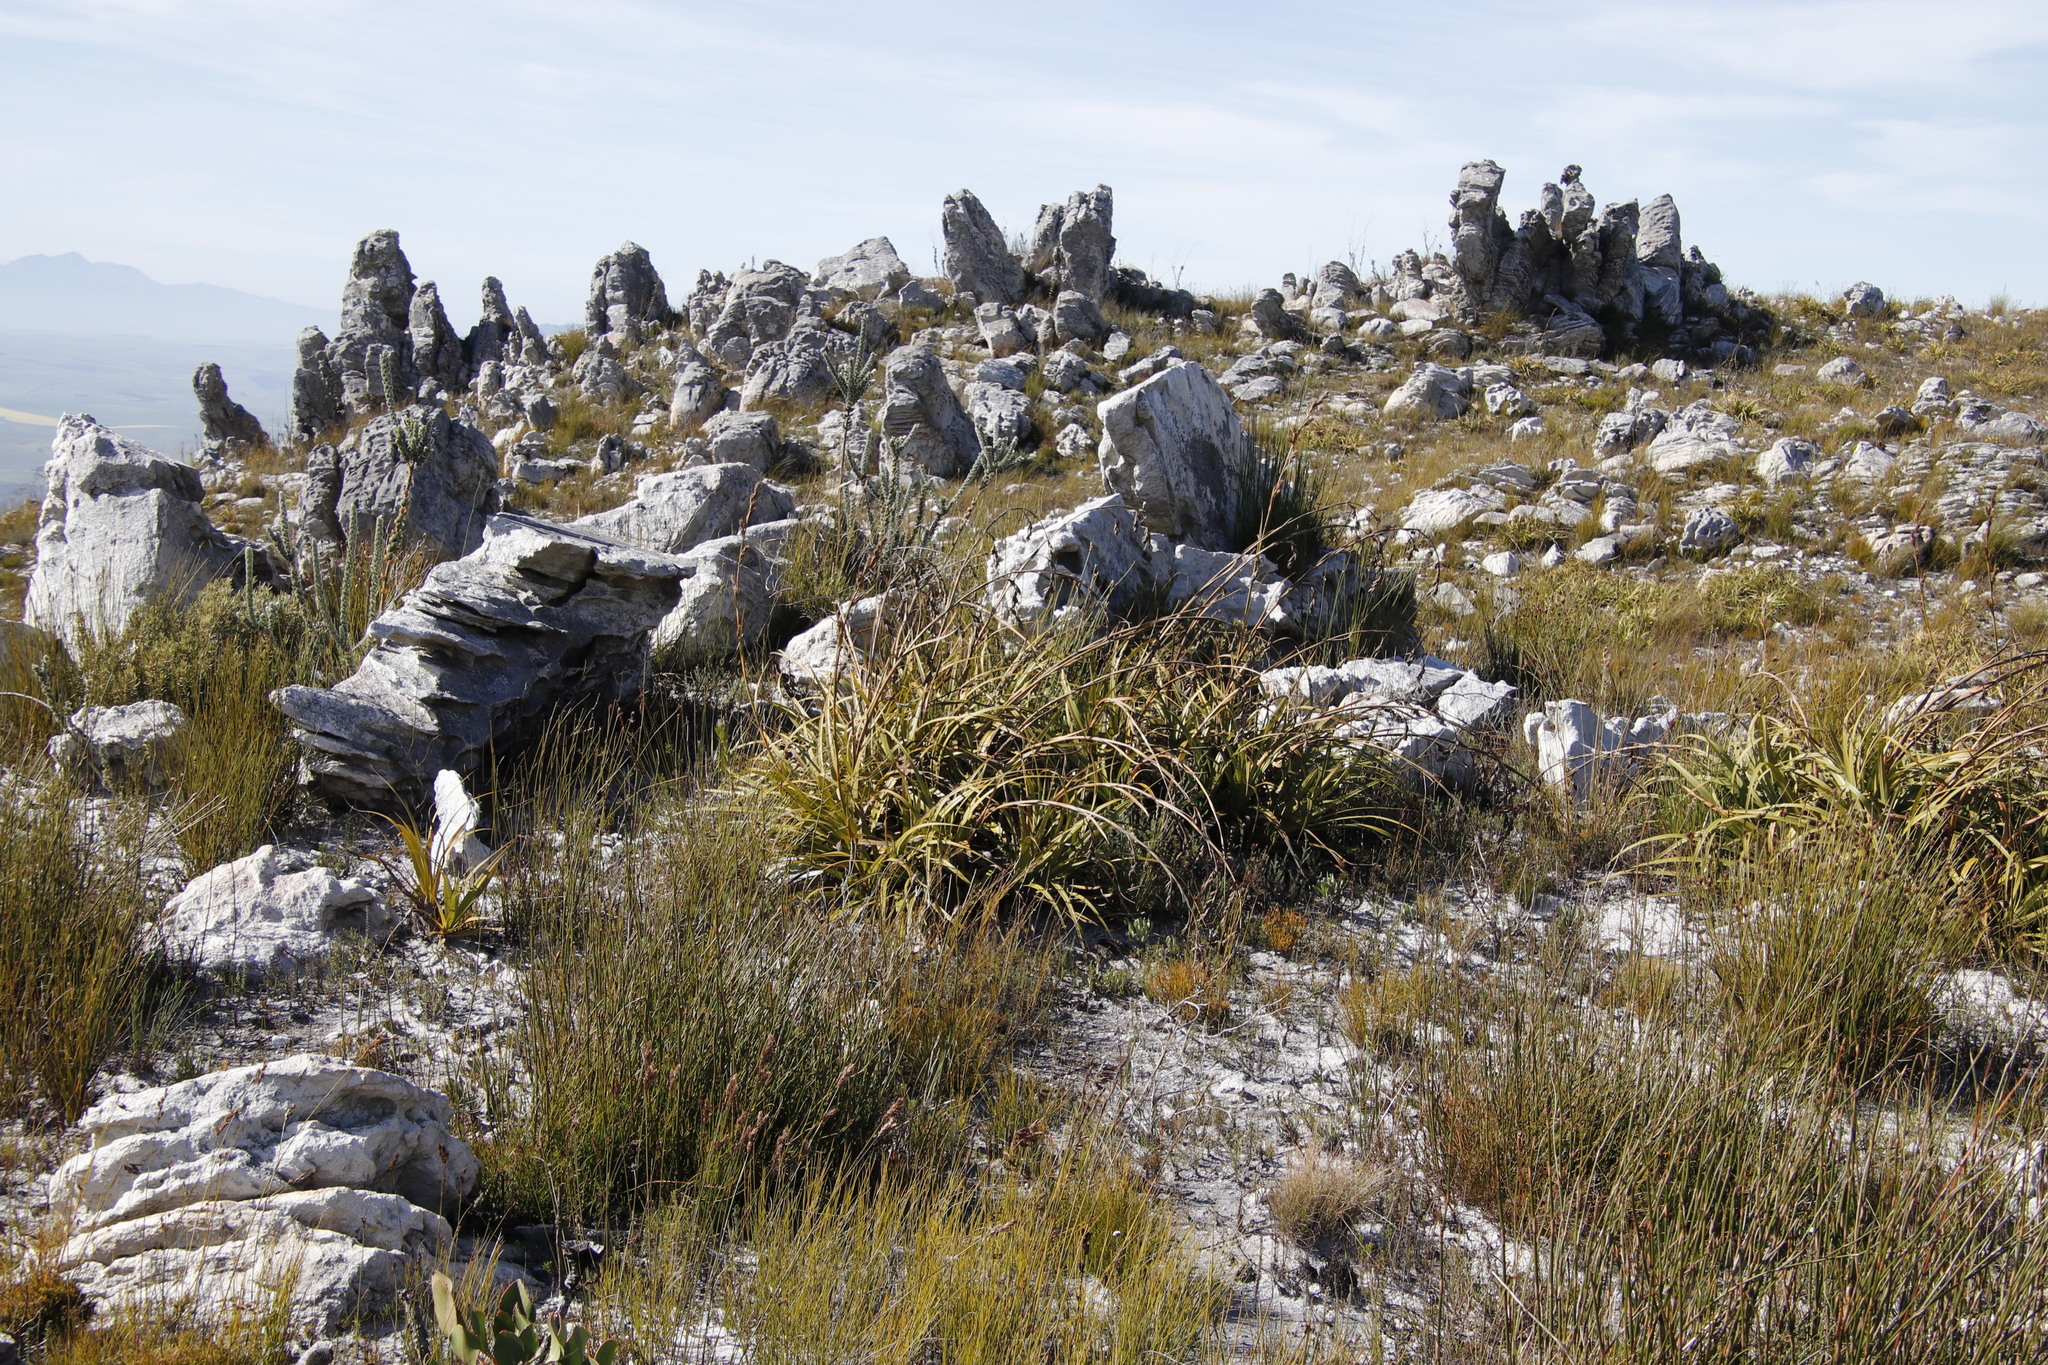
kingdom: Plantae
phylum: Tracheophyta
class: Liliopsida
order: Poales
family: Cyperaceae
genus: Tetraria
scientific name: Tetraria thermalis
